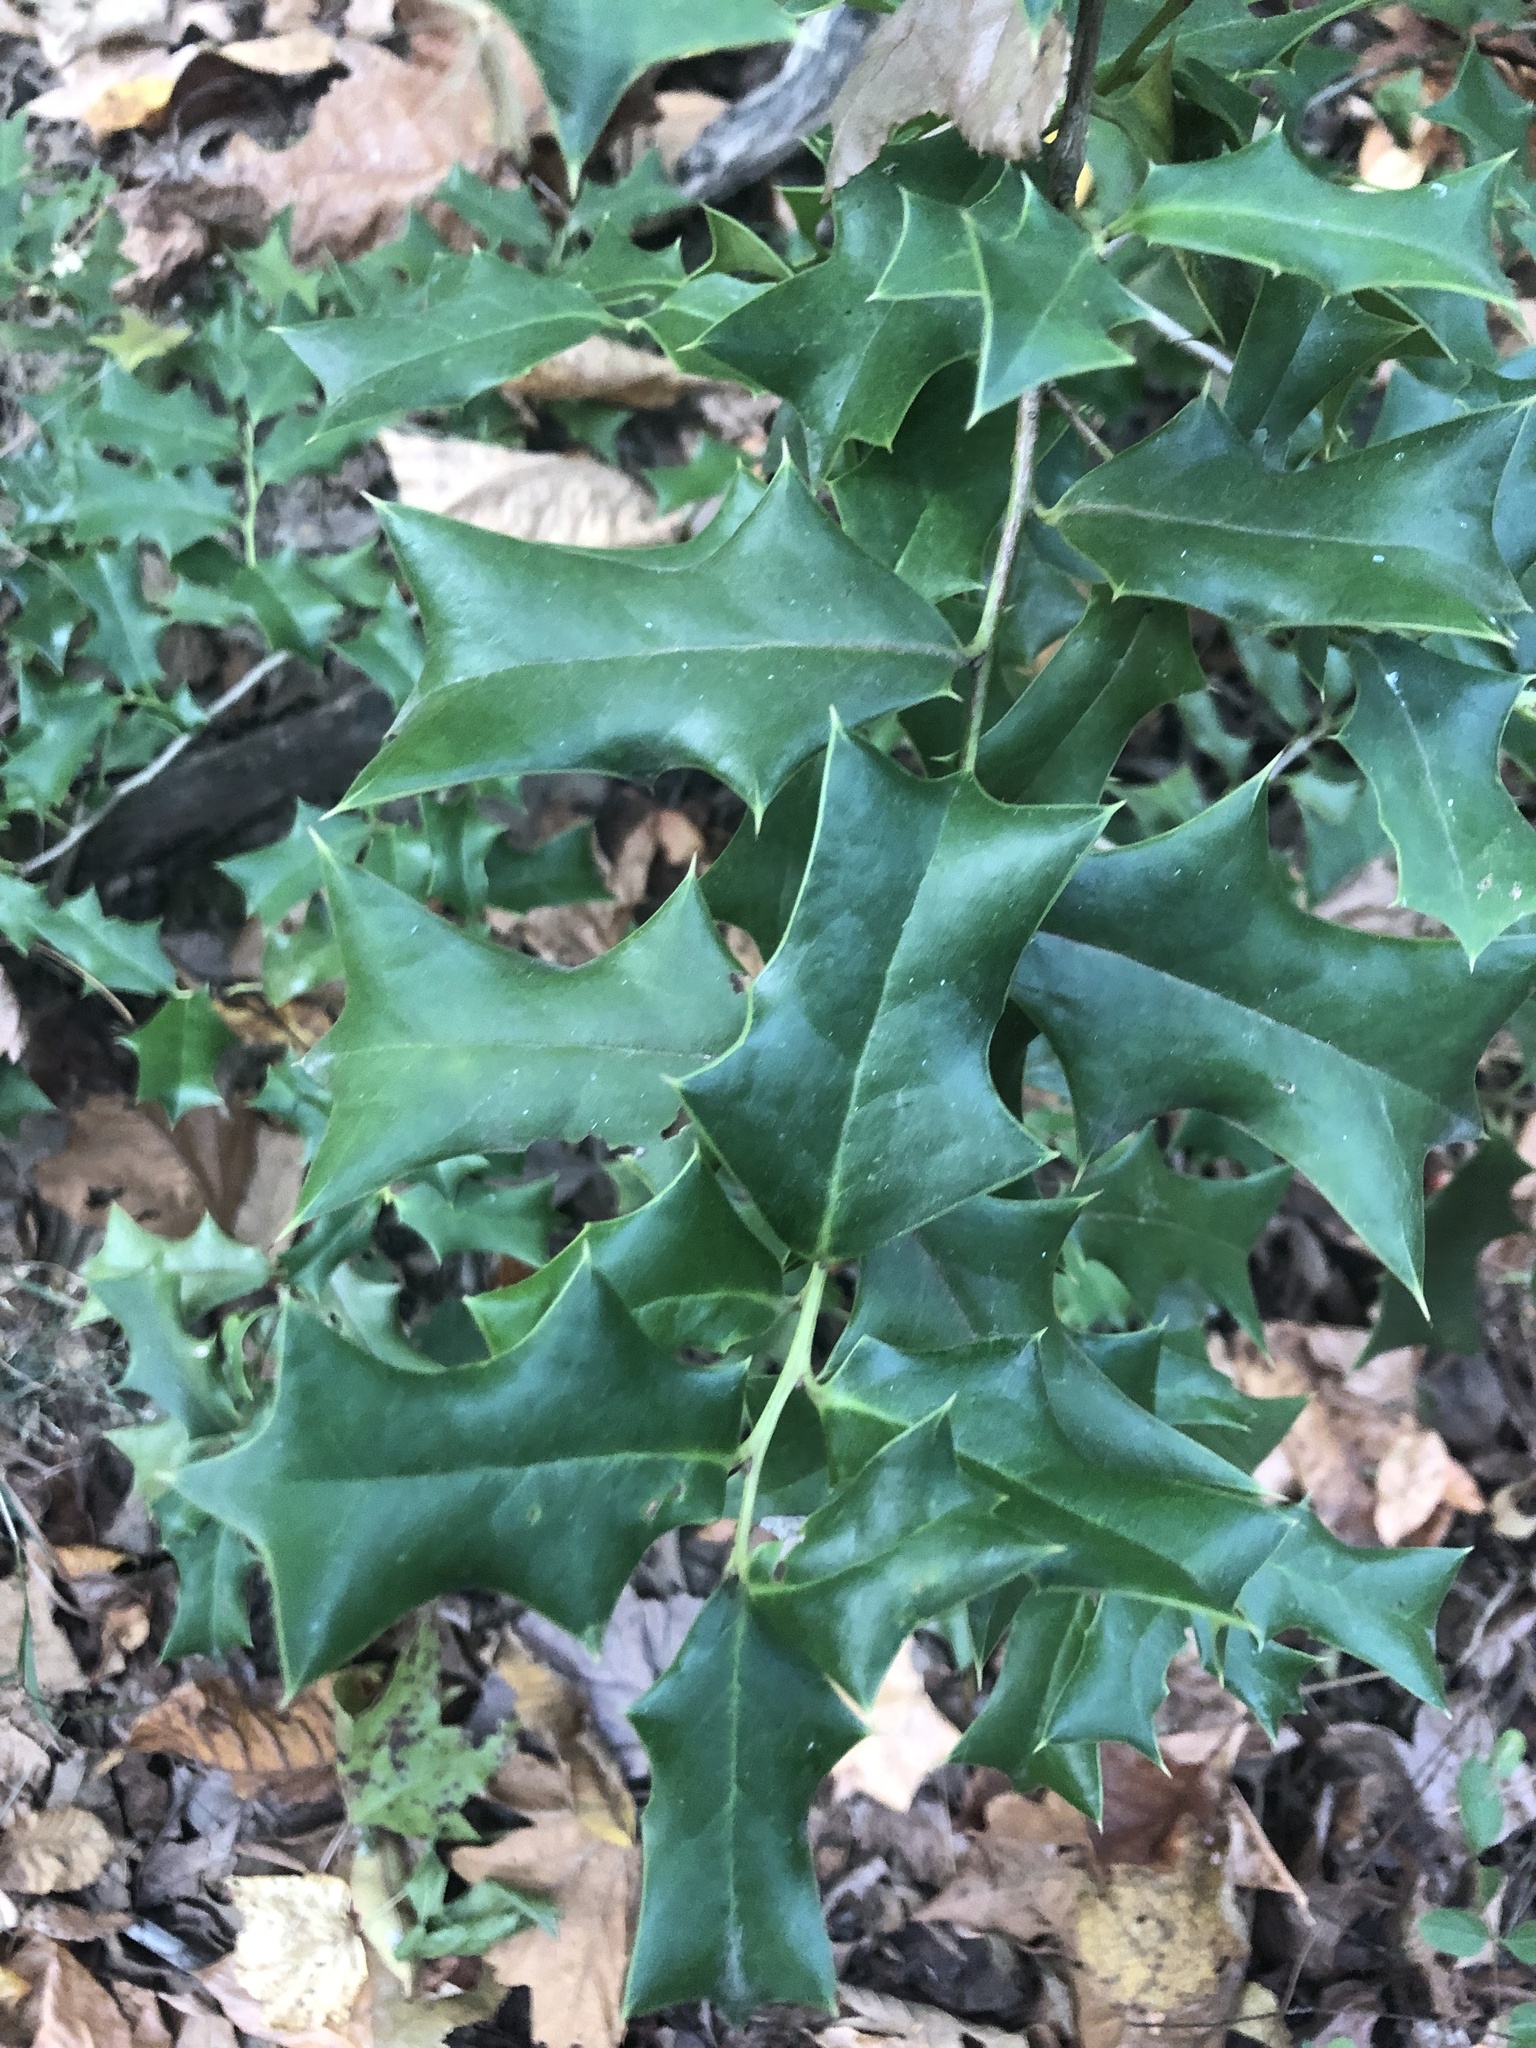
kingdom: Plantae
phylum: Tracheophyta
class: Magnoliopsida
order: Aquifoliales
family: Aquifoliaceae
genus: Ilex
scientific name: Ilex cornuta
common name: Chinese holly
